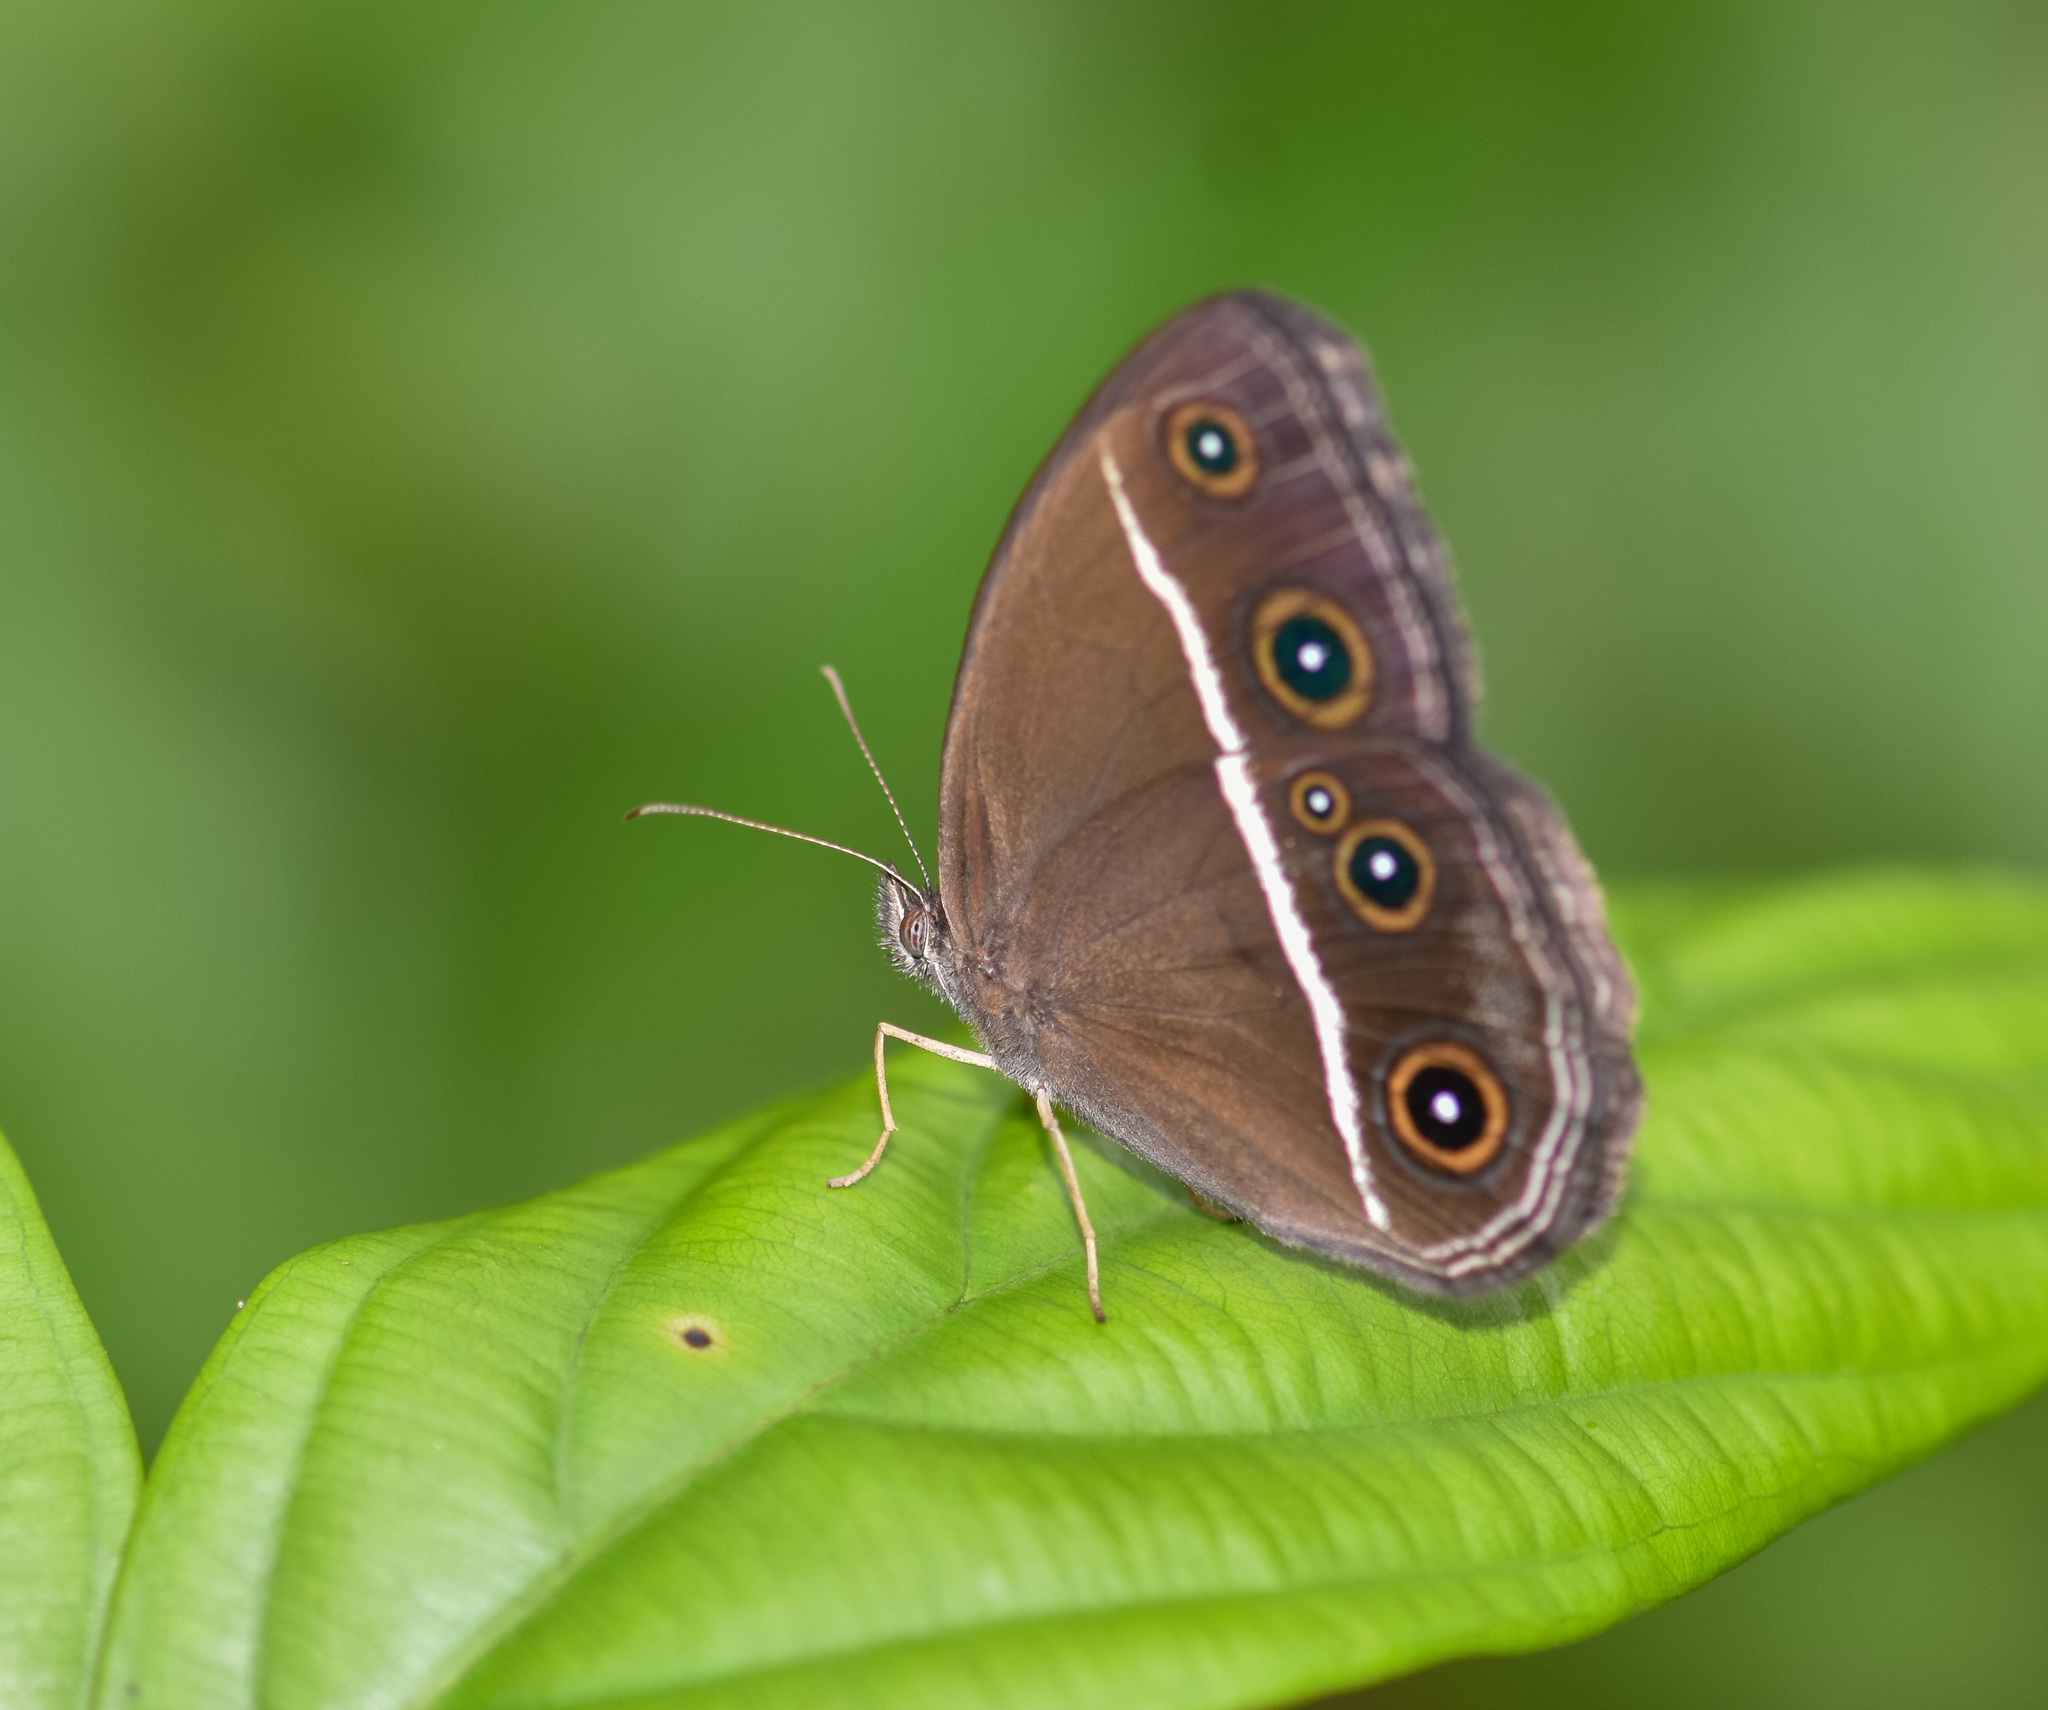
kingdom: Animalia
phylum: Arthropoda
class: Insecta
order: Lepidoptera
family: Nymphalidae
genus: Orsotriaena
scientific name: Orsotriaena medus
